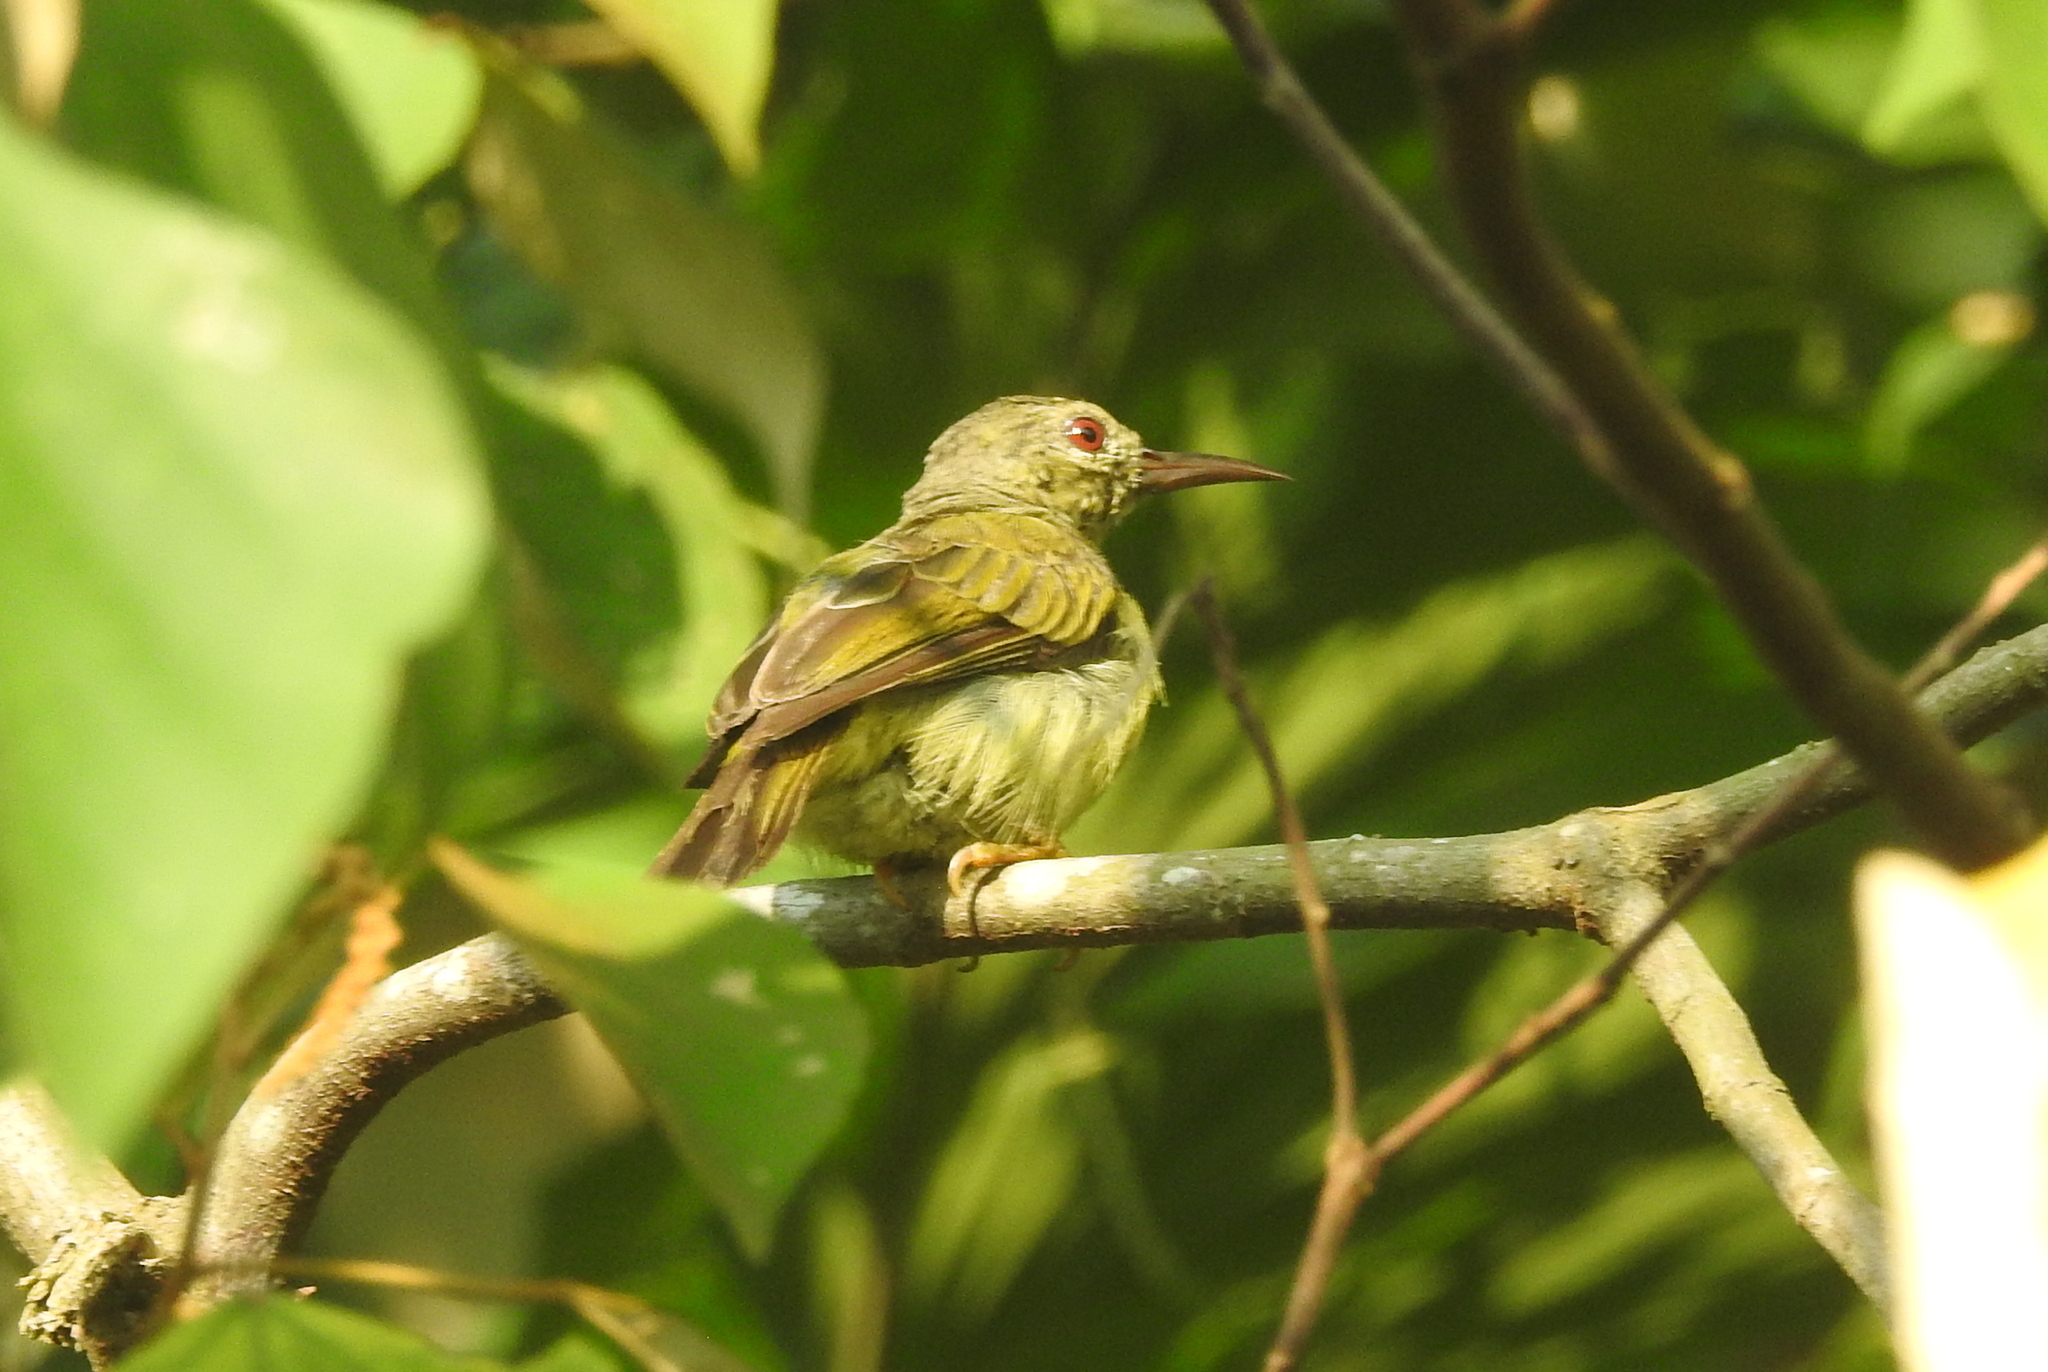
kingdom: Animalia
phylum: Chordata
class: Aves
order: Passeriformes
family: Nectariniidae
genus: Anthreptes
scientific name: Anthreptes malacensis
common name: Brown-throated sunbird
